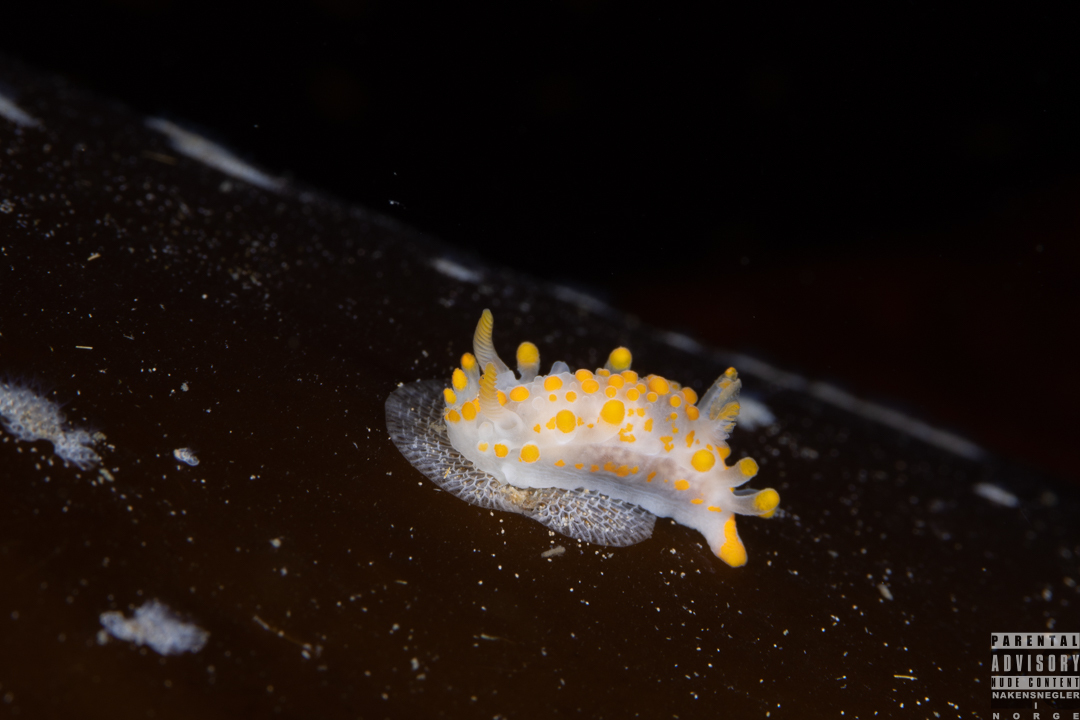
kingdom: Animalia
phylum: Mollusca
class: Gastropoda
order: Nudibranchia
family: Polyceridae
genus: Limacia
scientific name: Limacia clavigera
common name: Orange-clubbed sea slug
